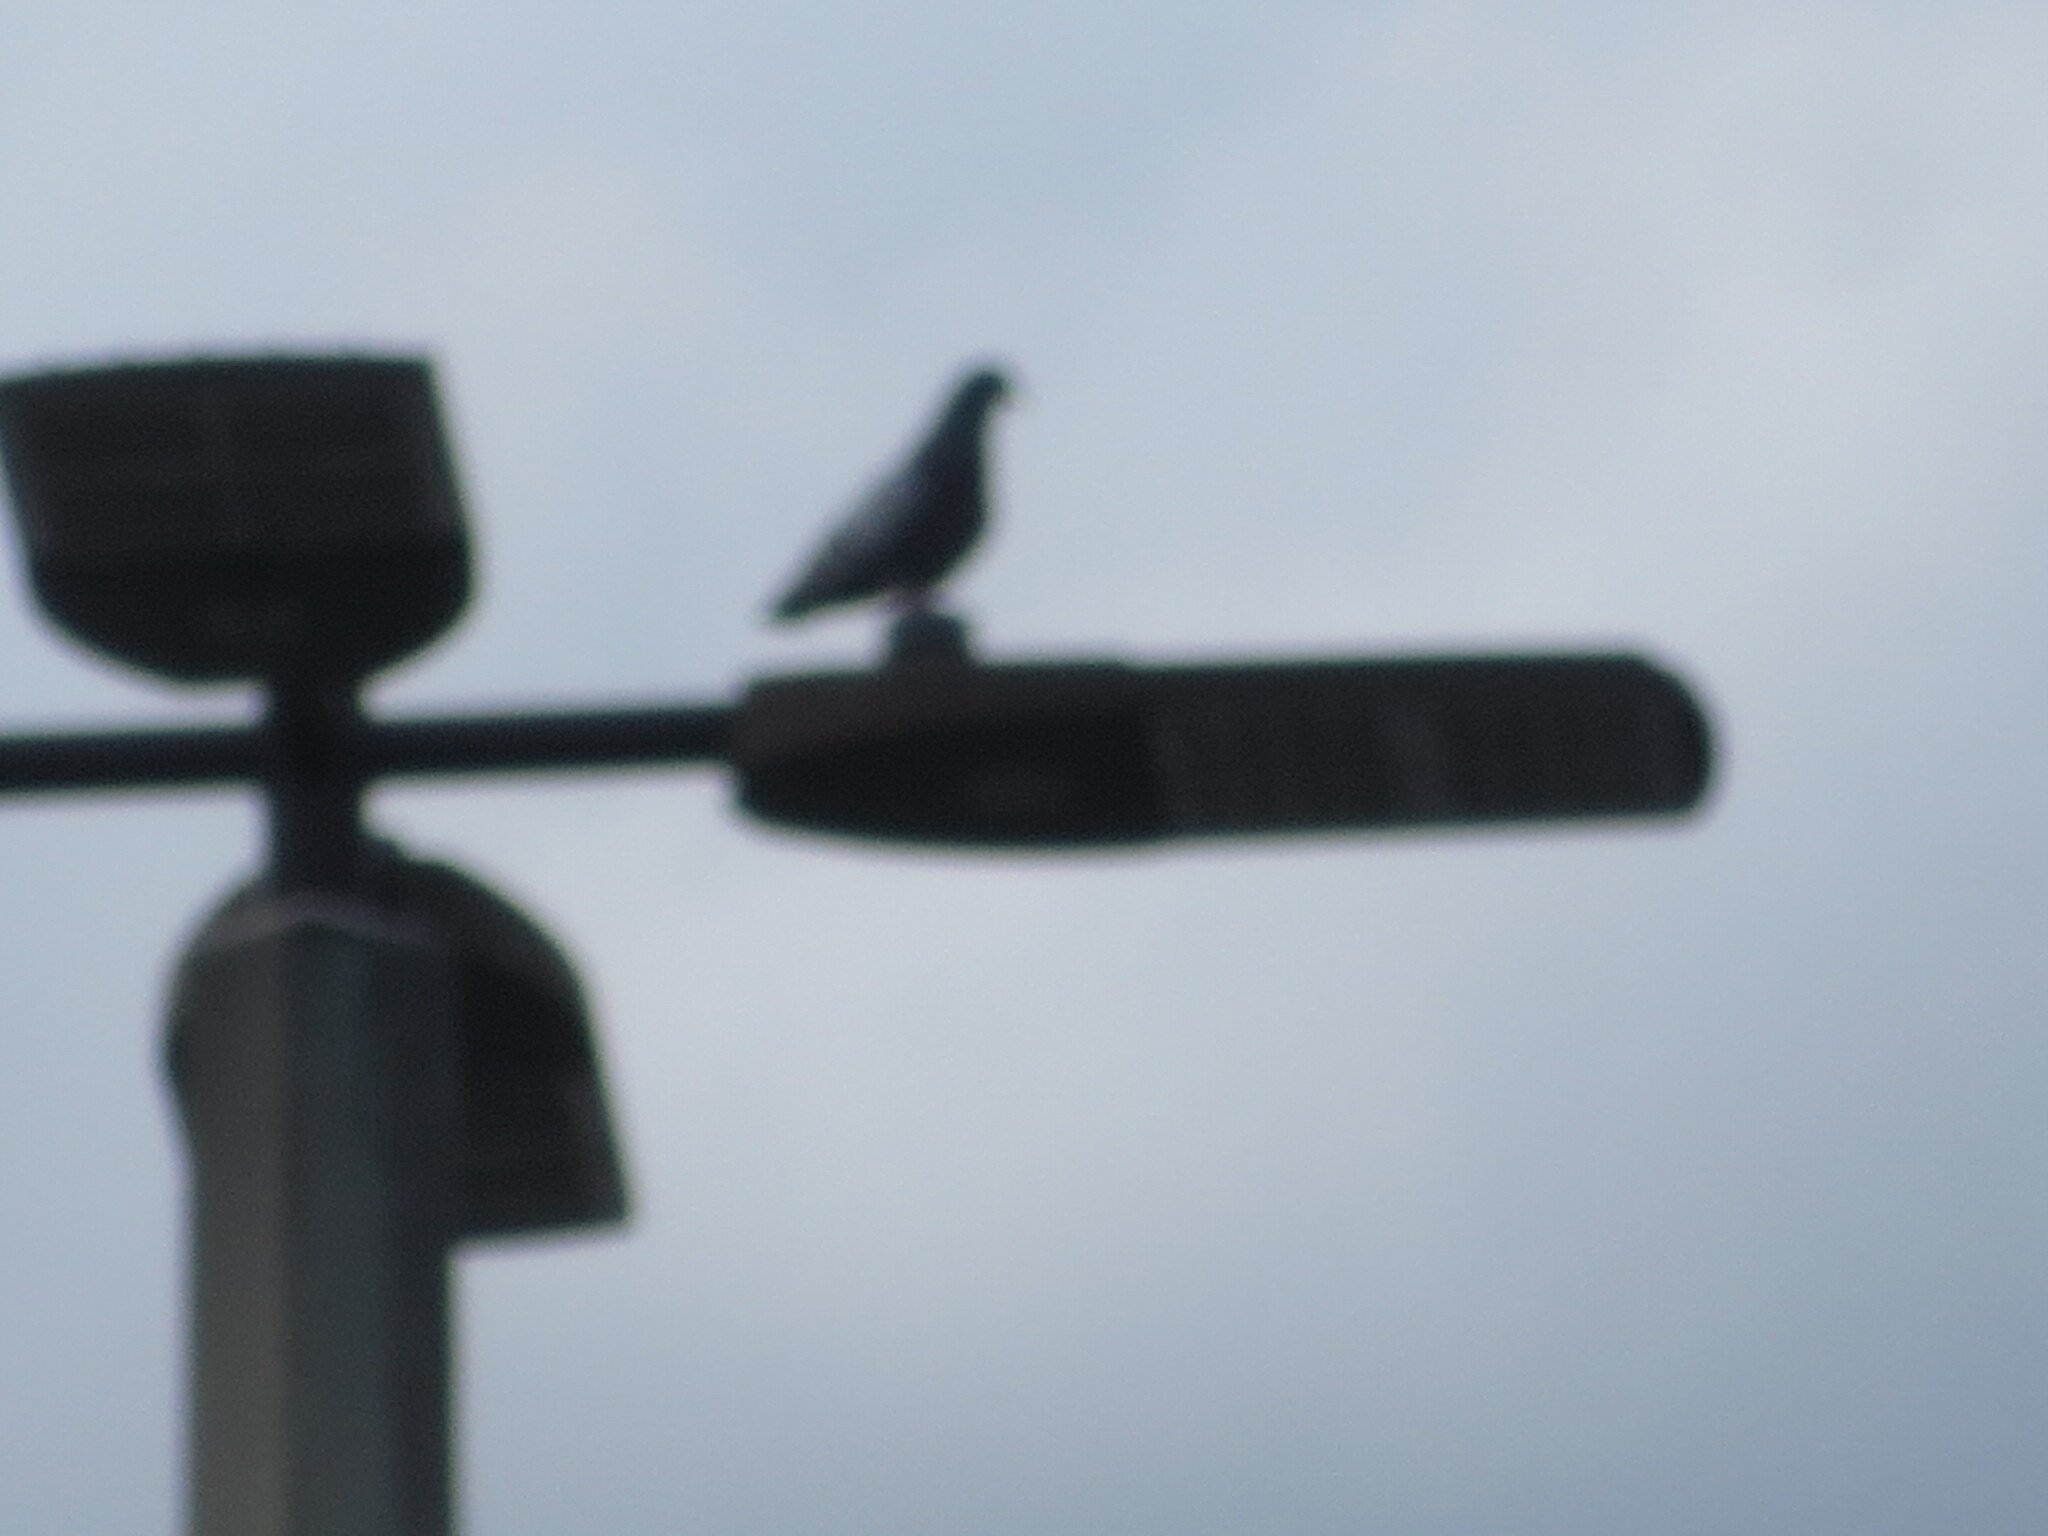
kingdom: Animalia
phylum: Chordata
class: Aves
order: Columbiformes
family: Columbidae
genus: Columba
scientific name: Columba livia
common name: Rock pigeon
